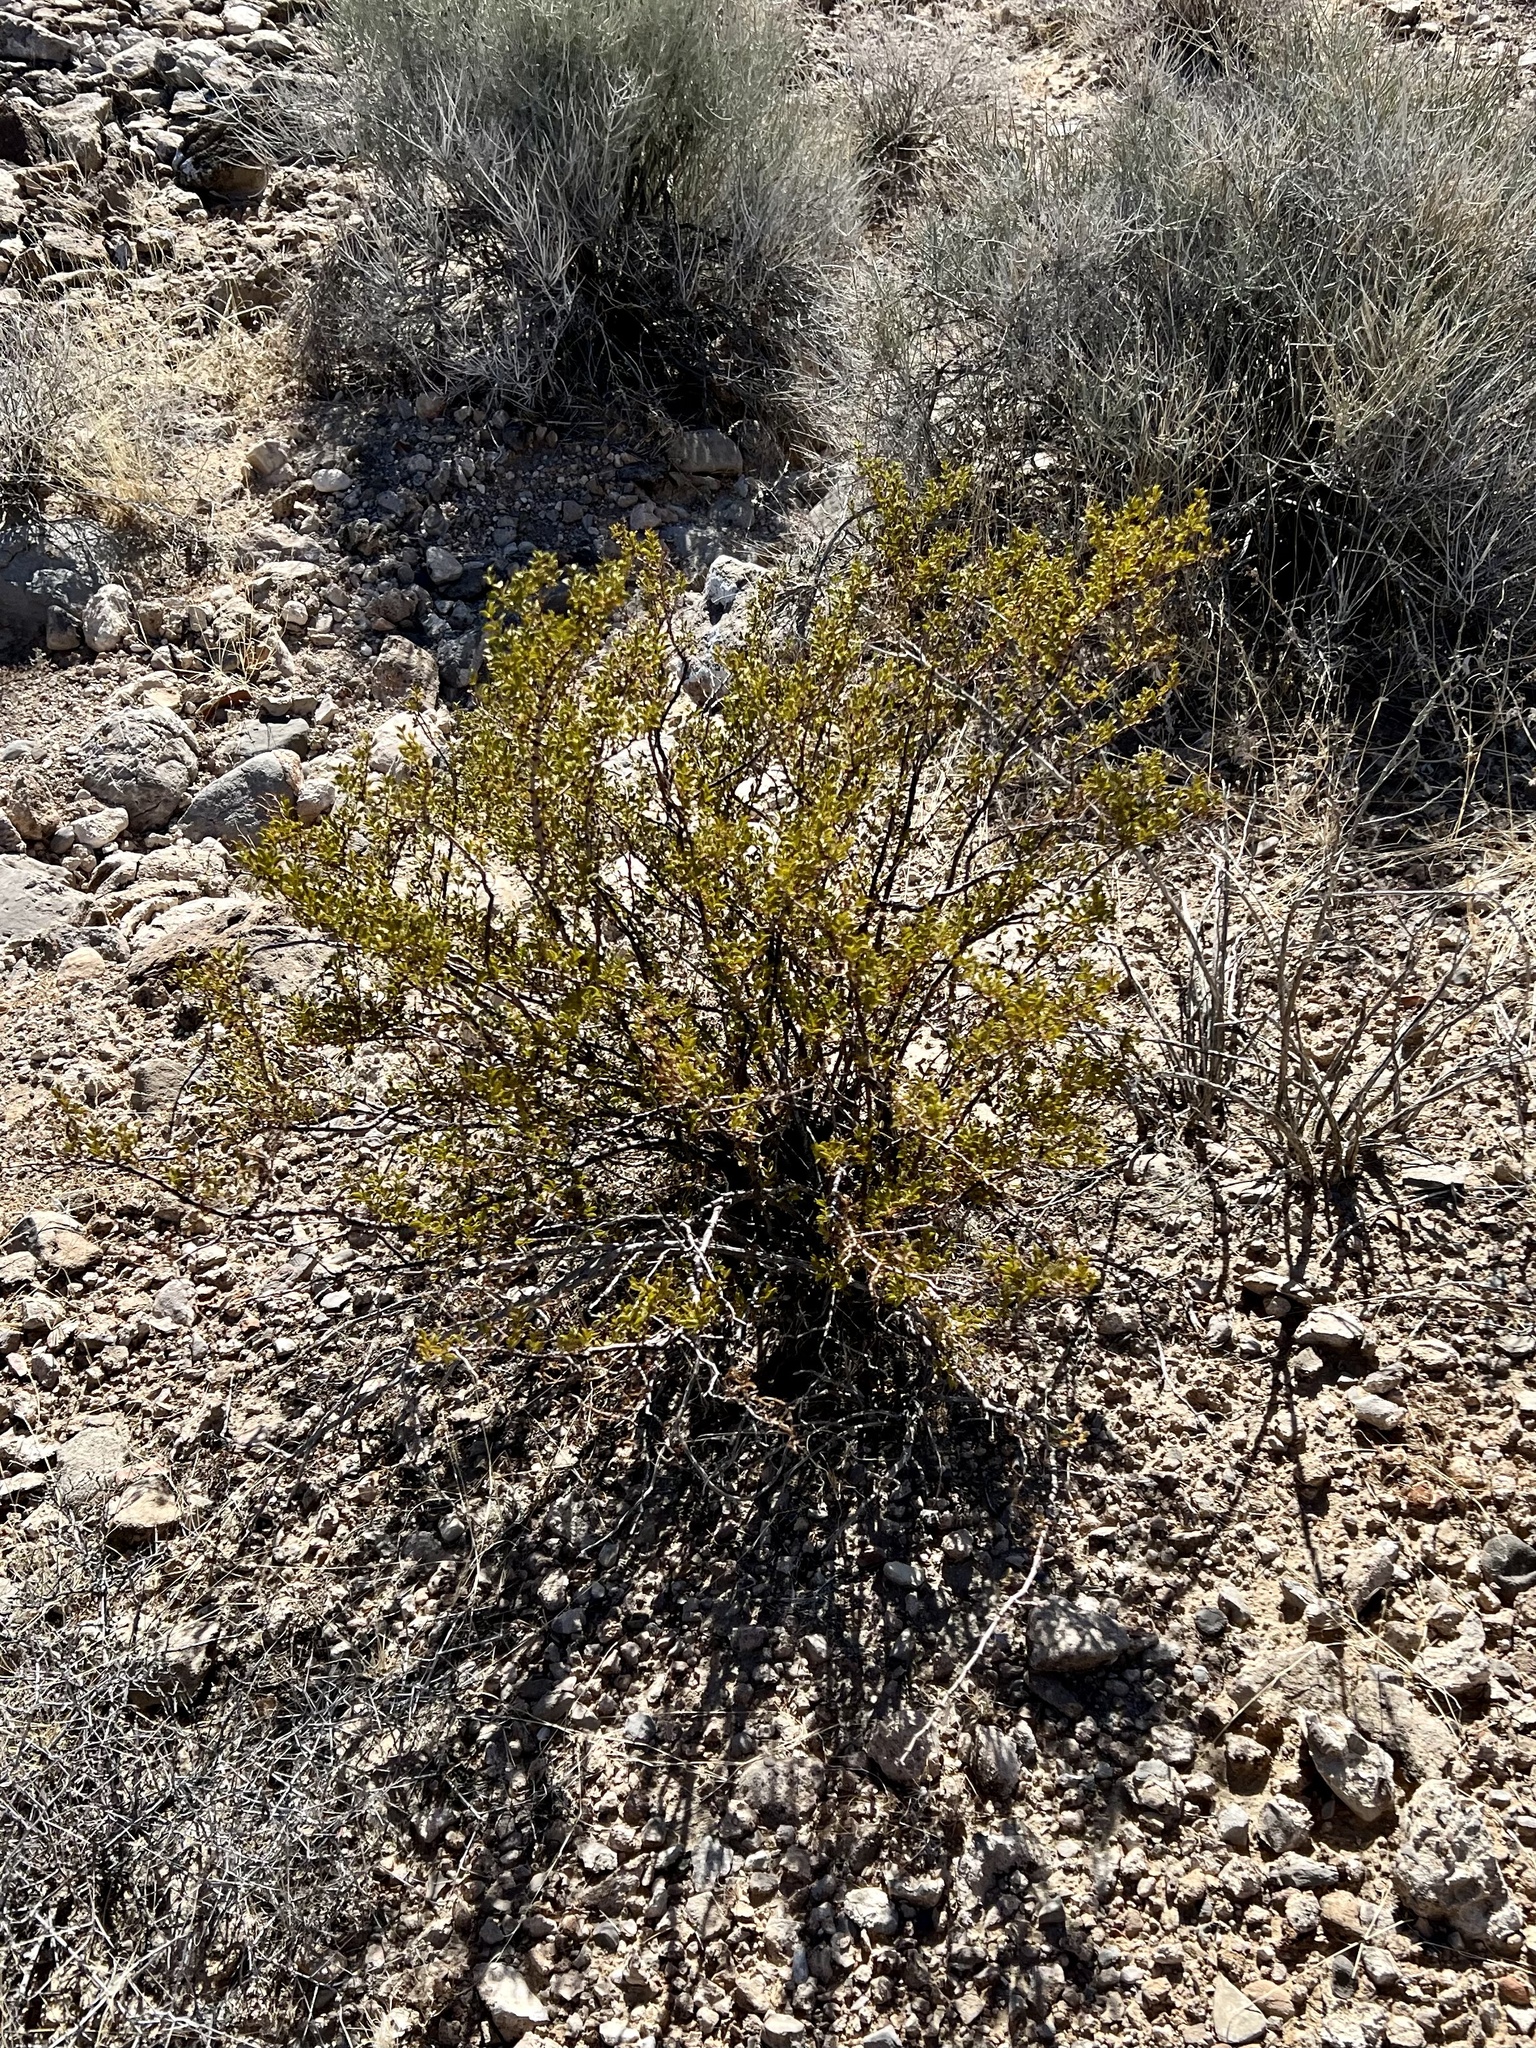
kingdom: Plantae
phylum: Tracheophyta
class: Magnoliopsida
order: Zygophyllales
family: Zygophyllaceae
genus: Larrea
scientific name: Larrea tridentata
